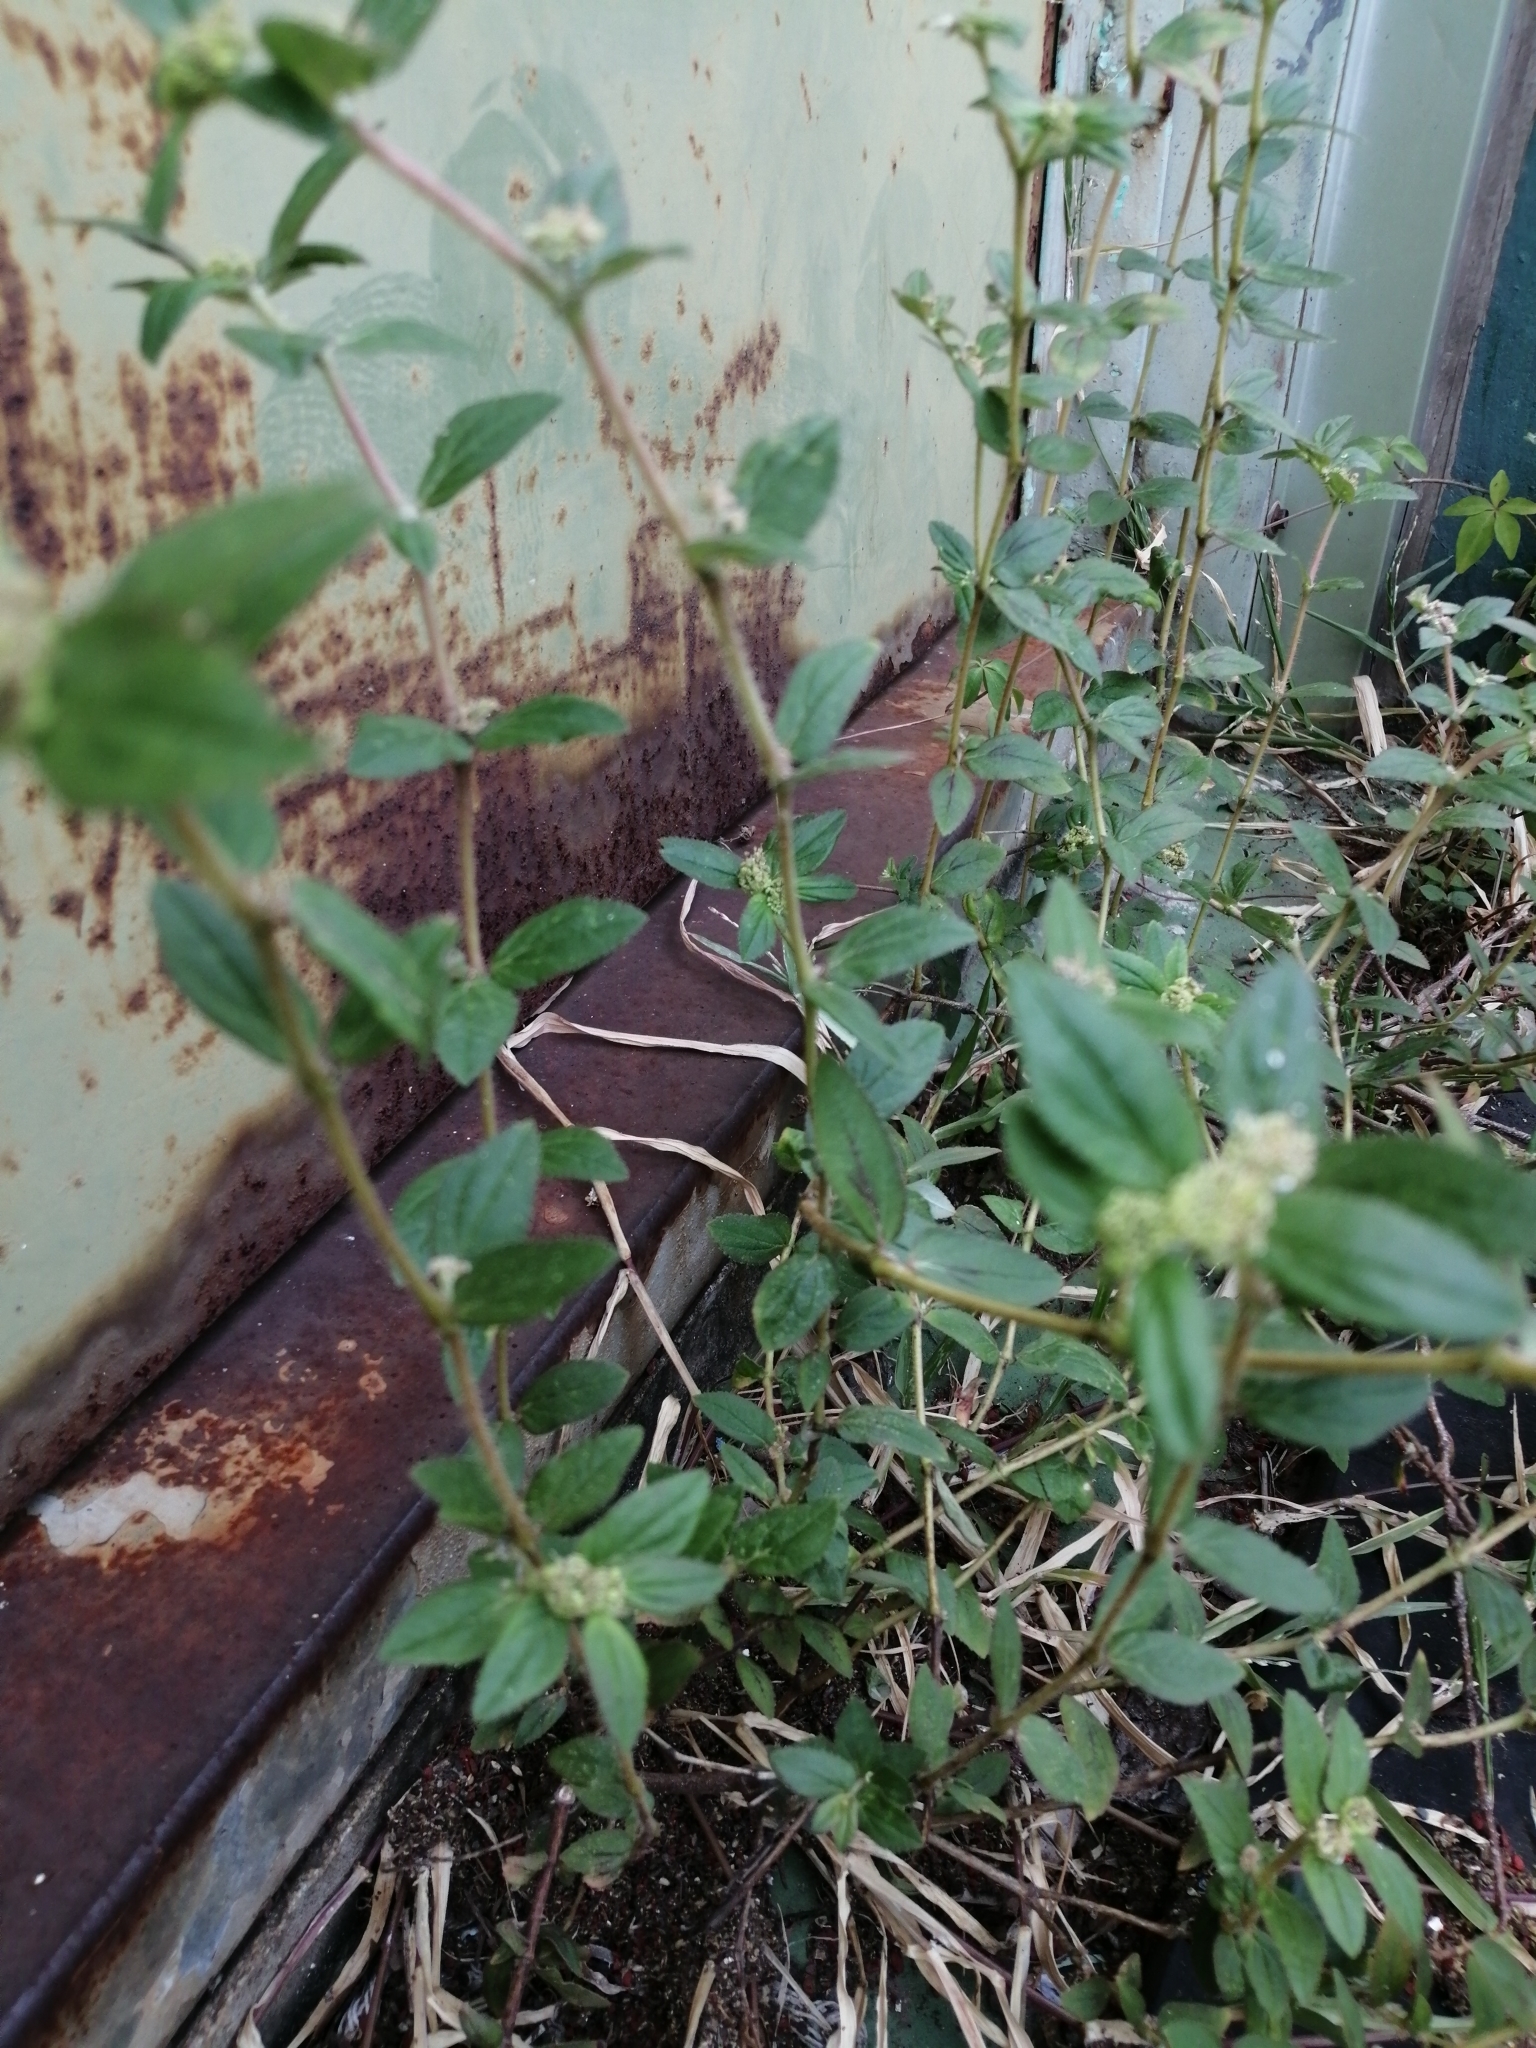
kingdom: Plantae
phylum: Tracheophyta
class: Magnoliopsida
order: Malpighiales
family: Euphorbiaceae
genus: Euphorbia
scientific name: Euphorbia hirta
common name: Pillpod sandmat
